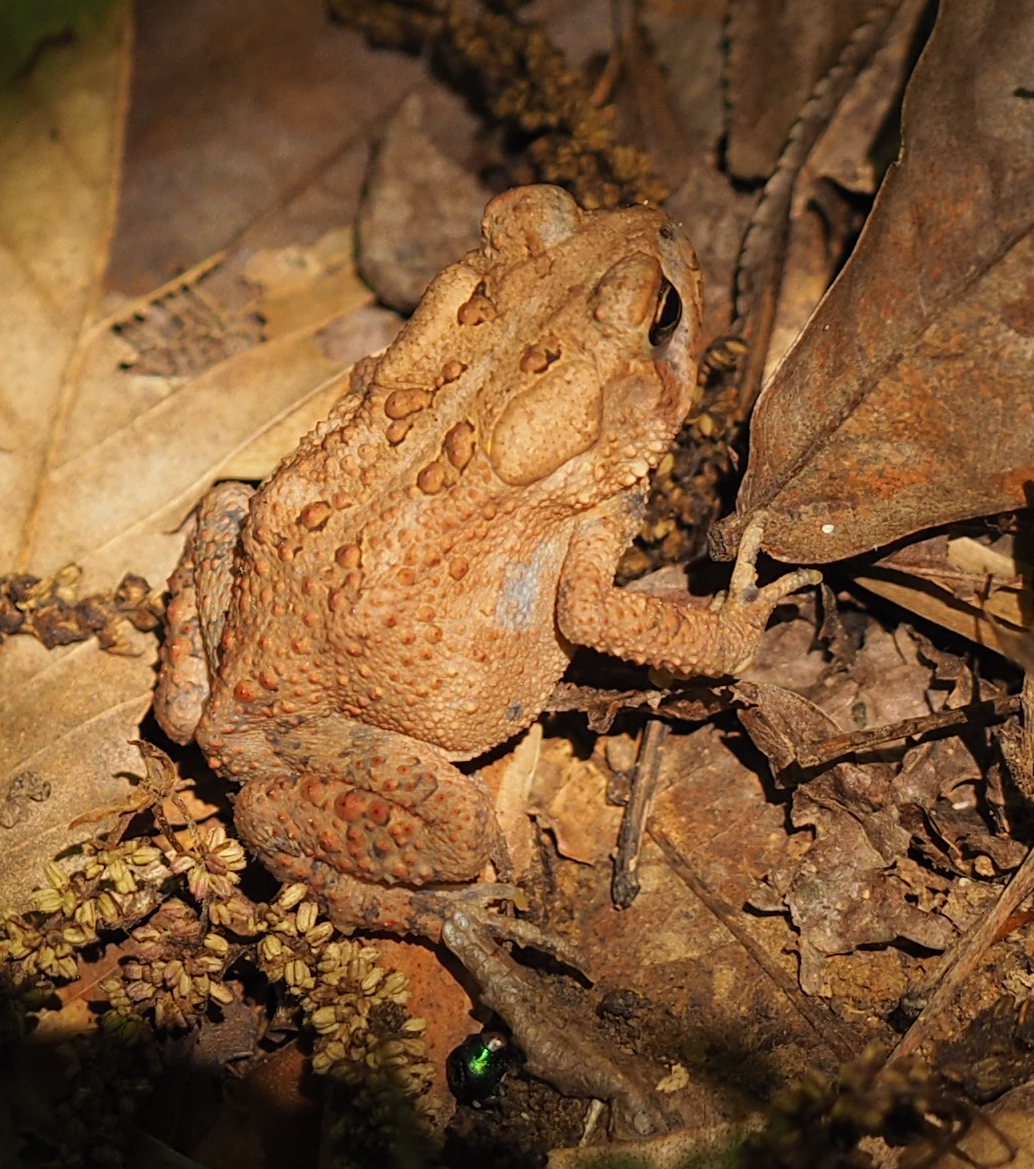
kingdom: Animalia
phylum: Chordata
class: Amphibia
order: Anura
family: Bufonidae
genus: Anaxyrus
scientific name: Anaxyrus americanus
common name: American toad
